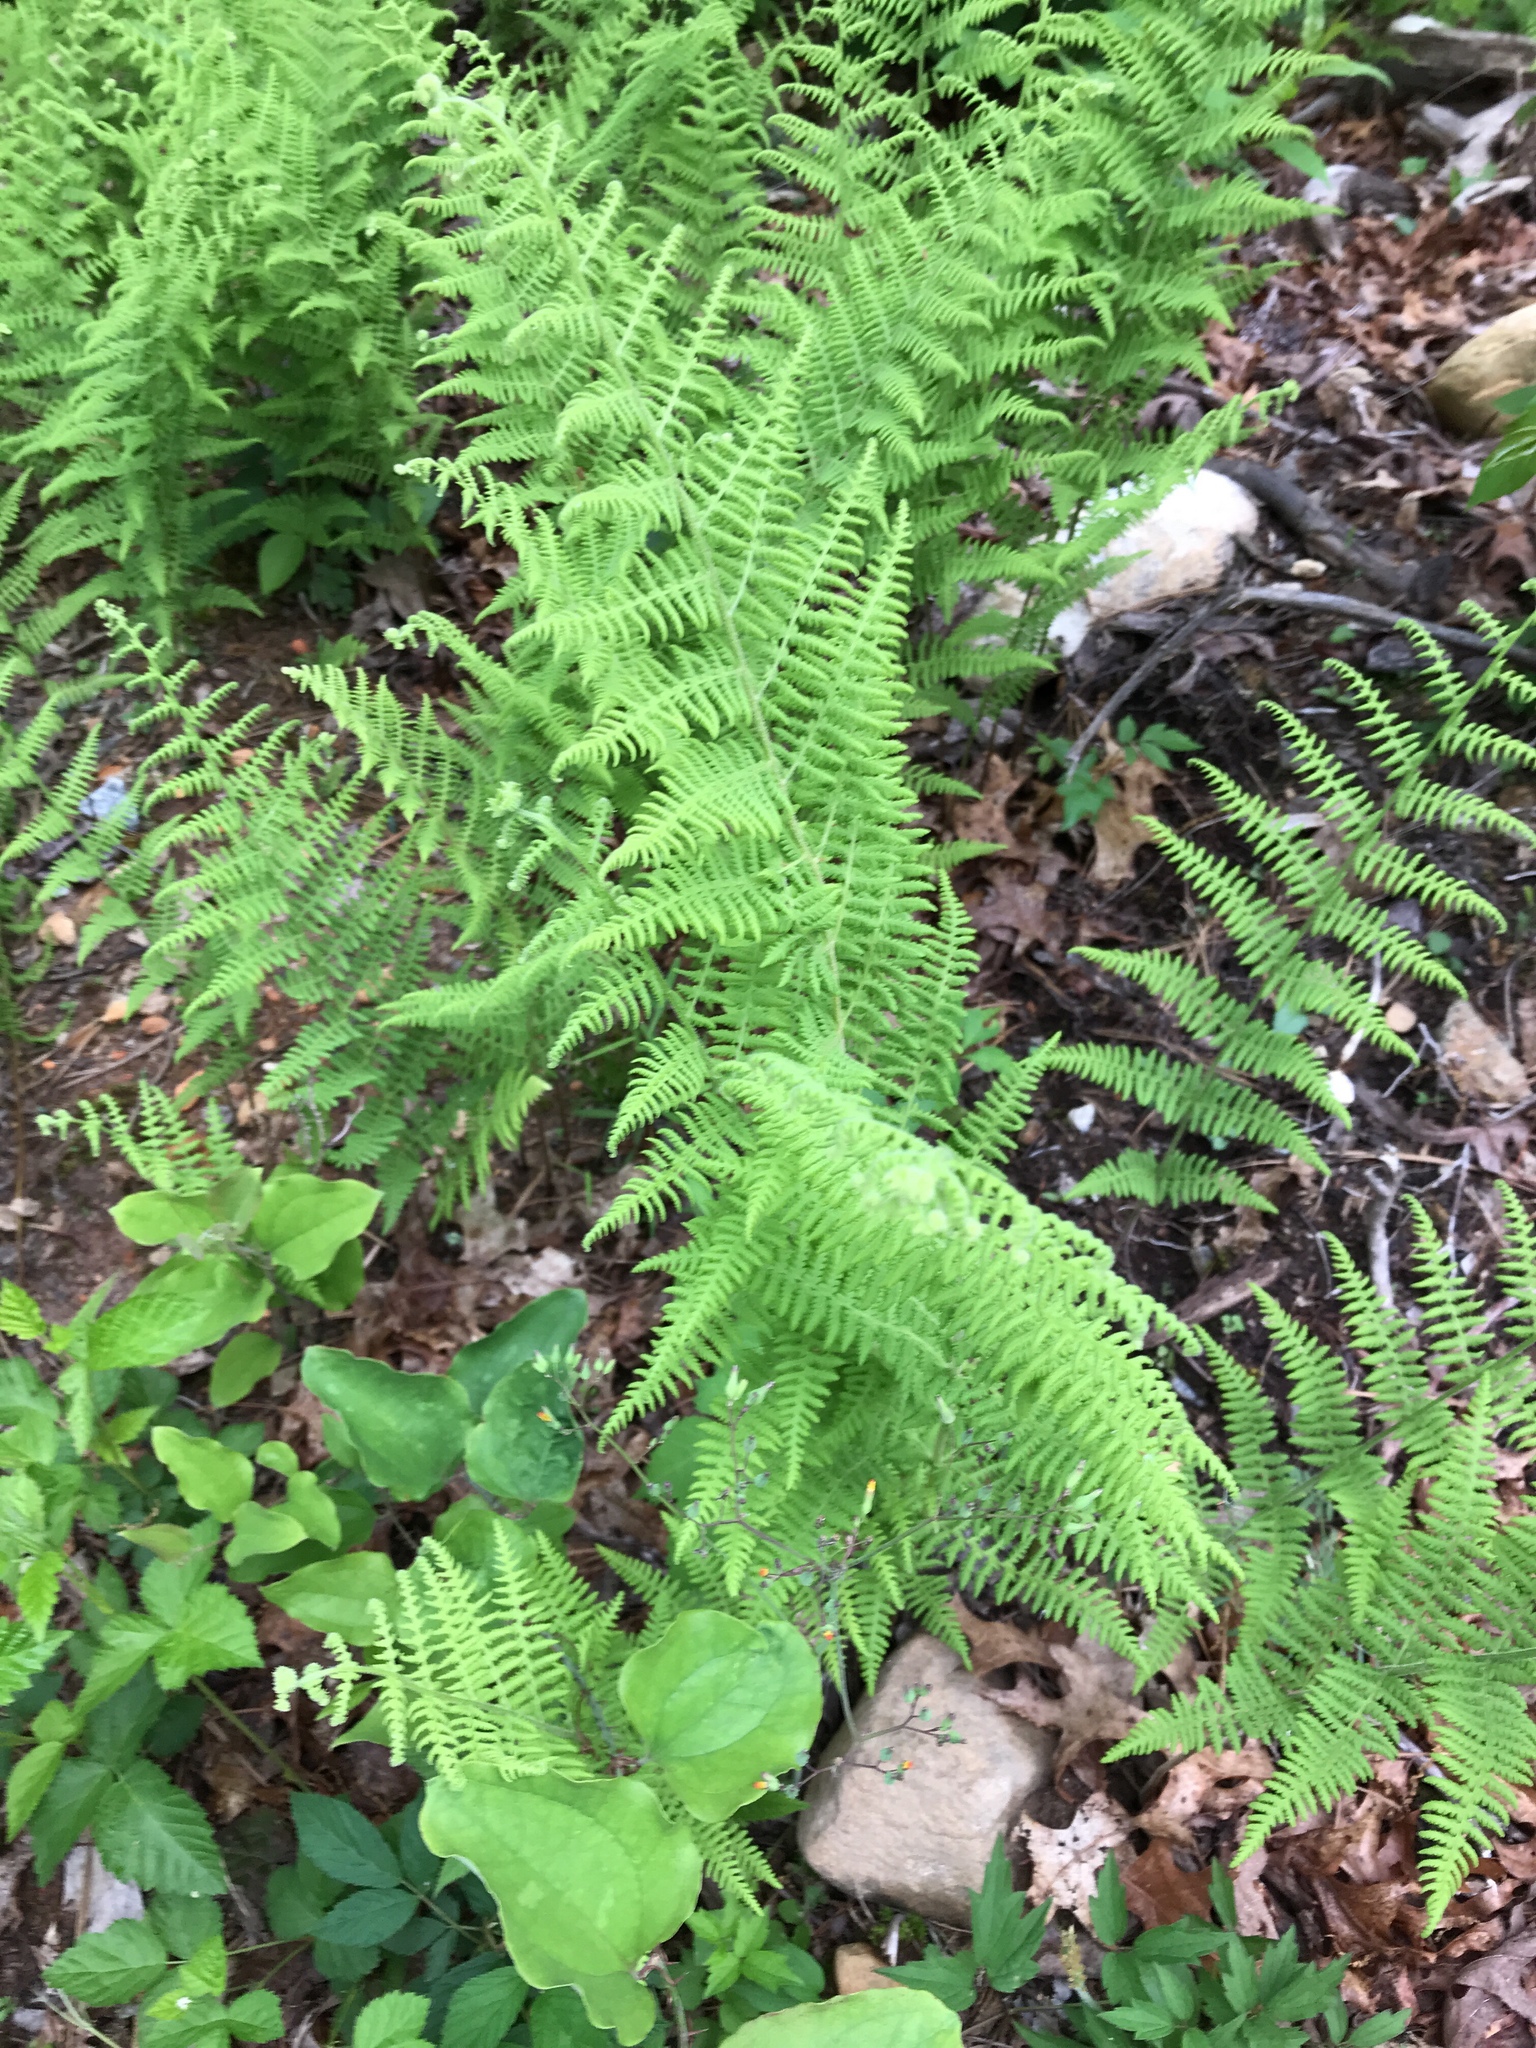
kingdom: Plantae
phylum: Tracheophyta
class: Polypodiopsida
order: Polypodiales
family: Dennstaedtiaceae
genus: Sitobolium
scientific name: Sitobolium punctilobum
